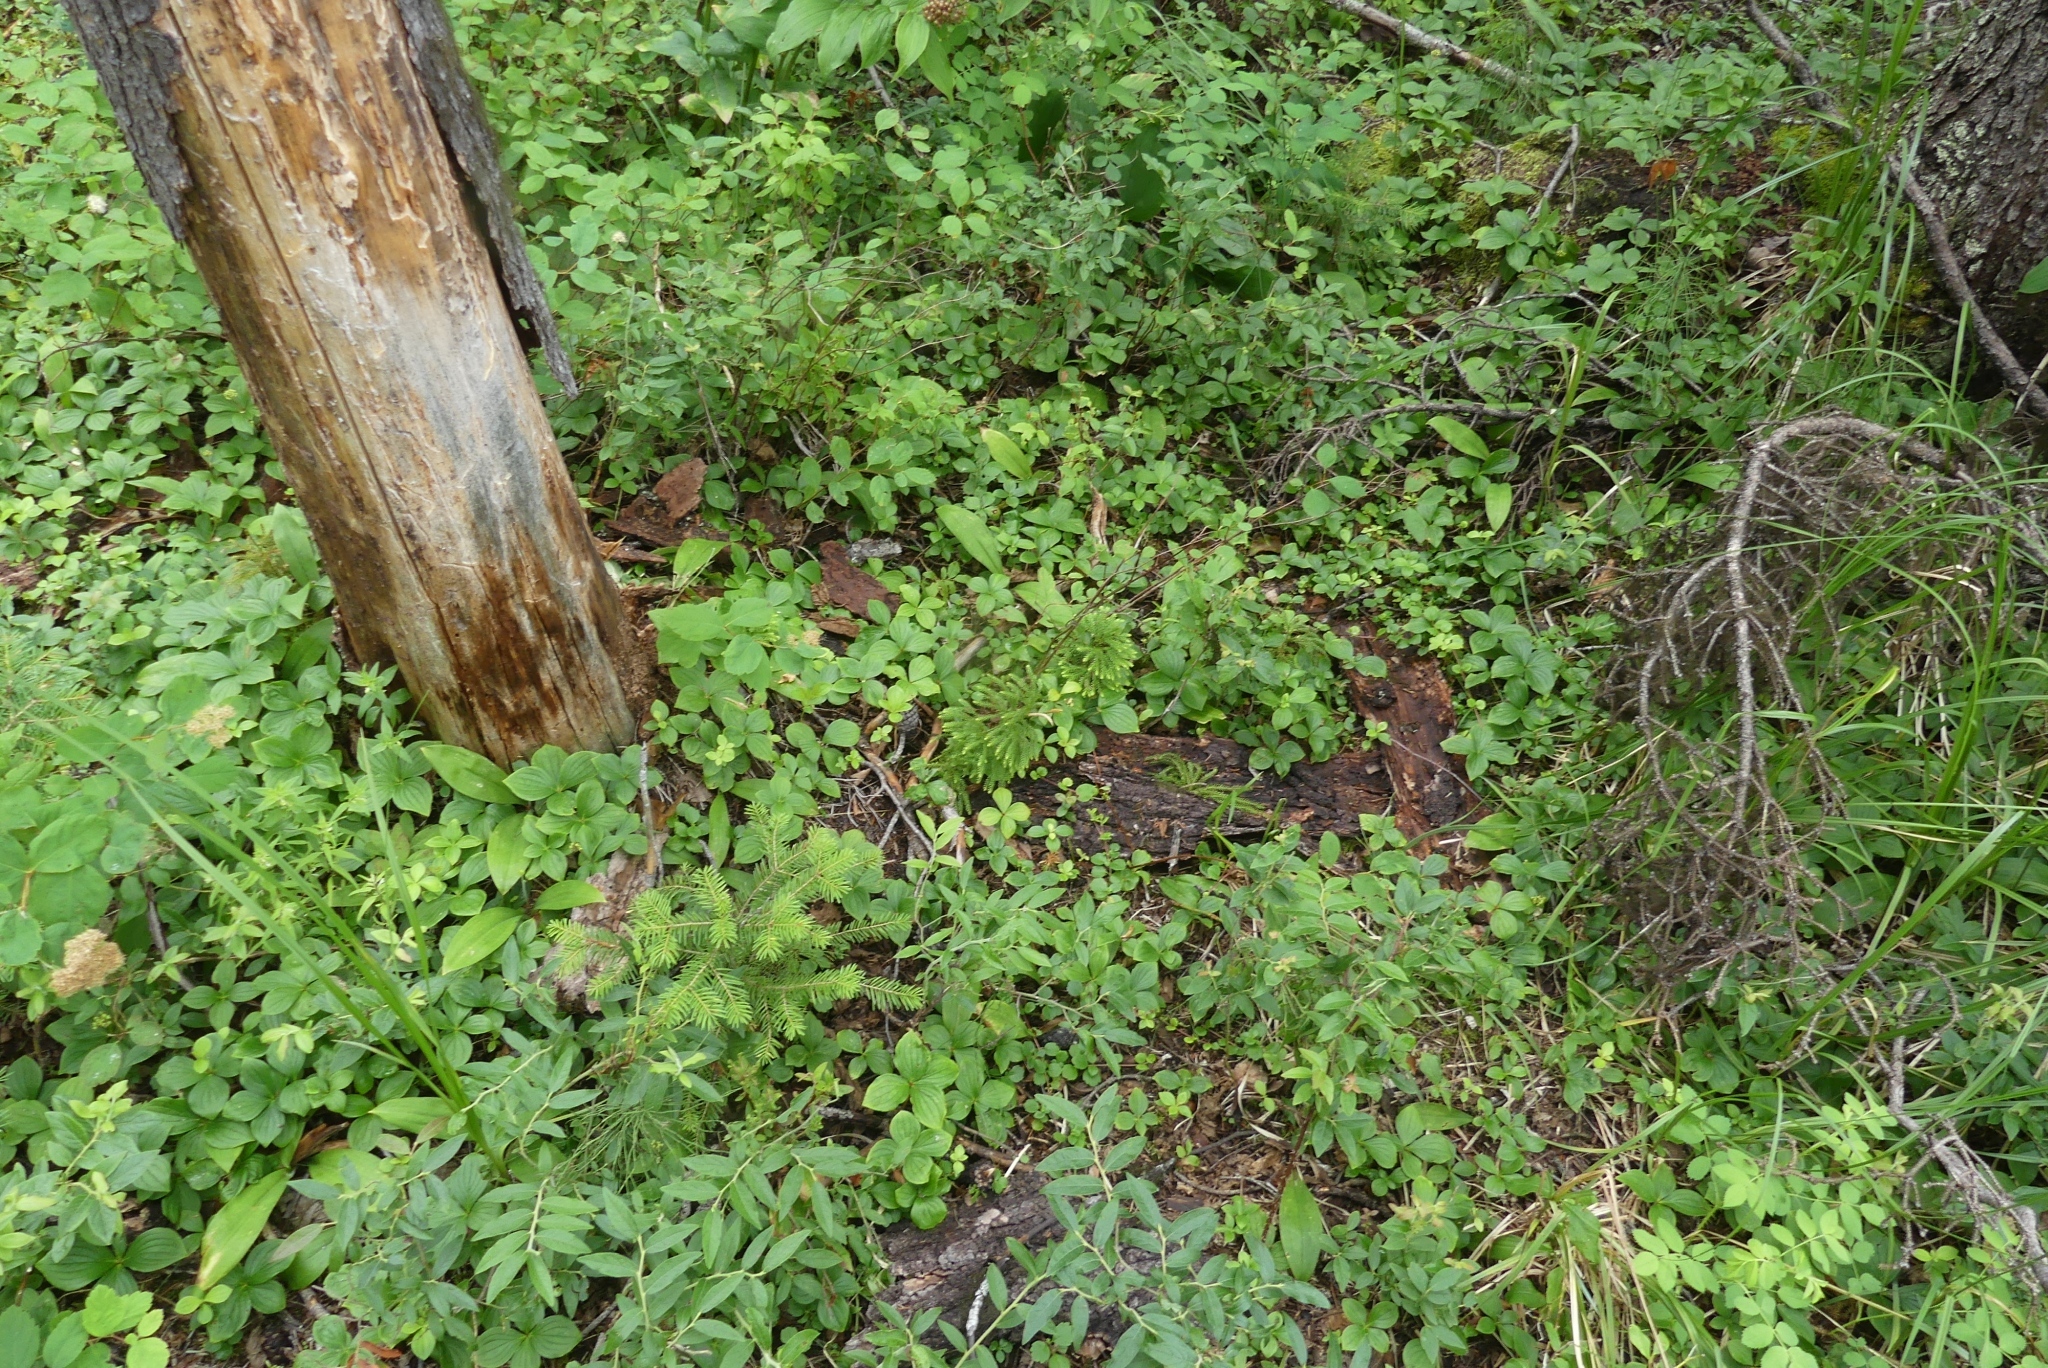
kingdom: Plantae
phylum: Tracheophyta
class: Lycopodiopsida
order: Lycopodiales
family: Lycopodiaceae
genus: Dendrolycopodium
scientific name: Dendrolycopodium dendroideum
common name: Northern tree-clubmoss
